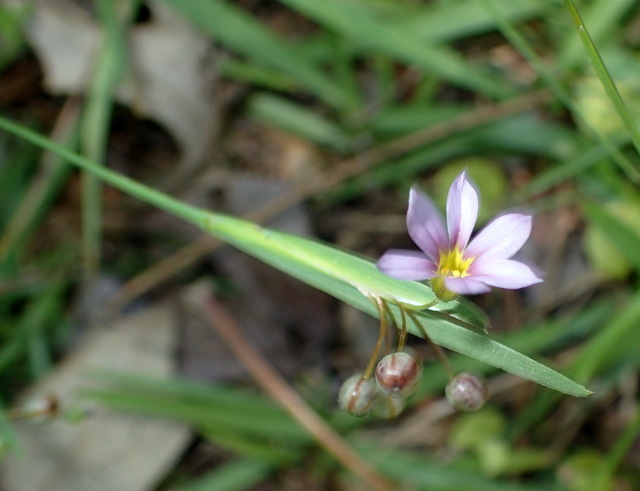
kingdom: Plantae
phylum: Tracheophyta
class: Liliopsida
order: Asparagales
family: Iridaceae
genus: Sisyrinchium
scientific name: Sisyrinchium micranthum
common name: Bermuda pigroot
